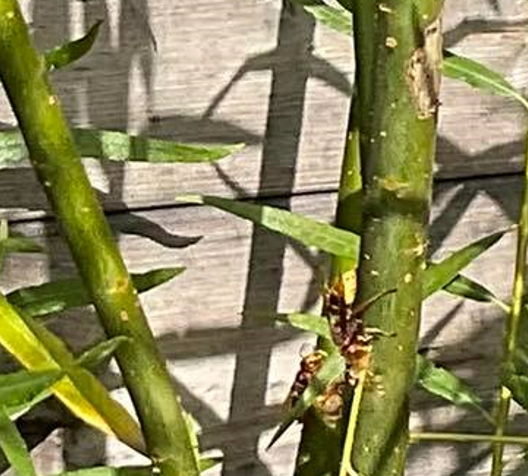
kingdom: Animalia
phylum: Arthropoda
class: Insecta
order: Hymenoptera
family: Vespidae
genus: Vespa
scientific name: Vespa crabro
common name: Hornet
